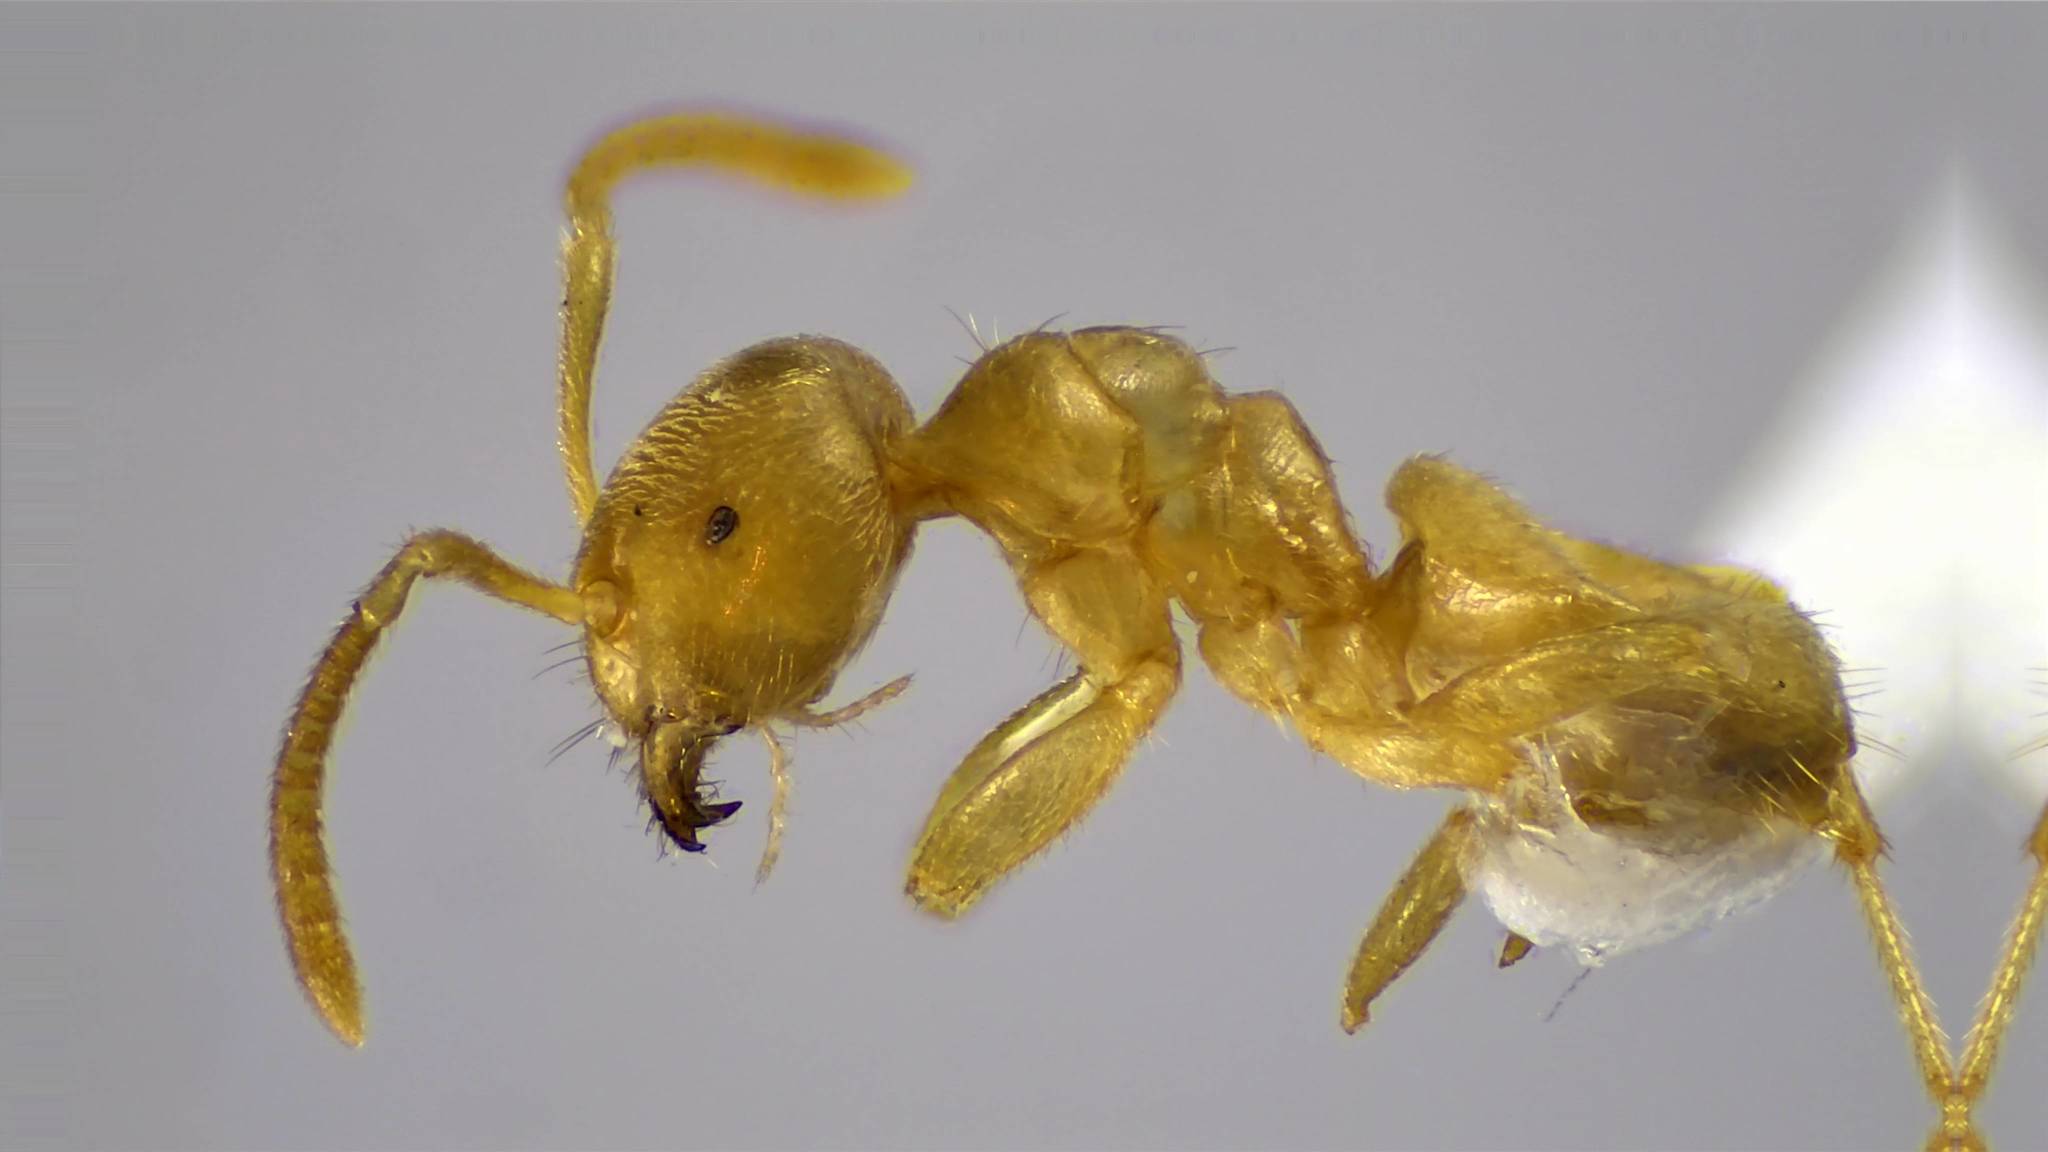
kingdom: Animalia
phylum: Arthropoda
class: Insecta
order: Hymenoptera
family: Formicidae
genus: Lasius
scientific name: Lasius nearcticus
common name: New world fuzzy ant
